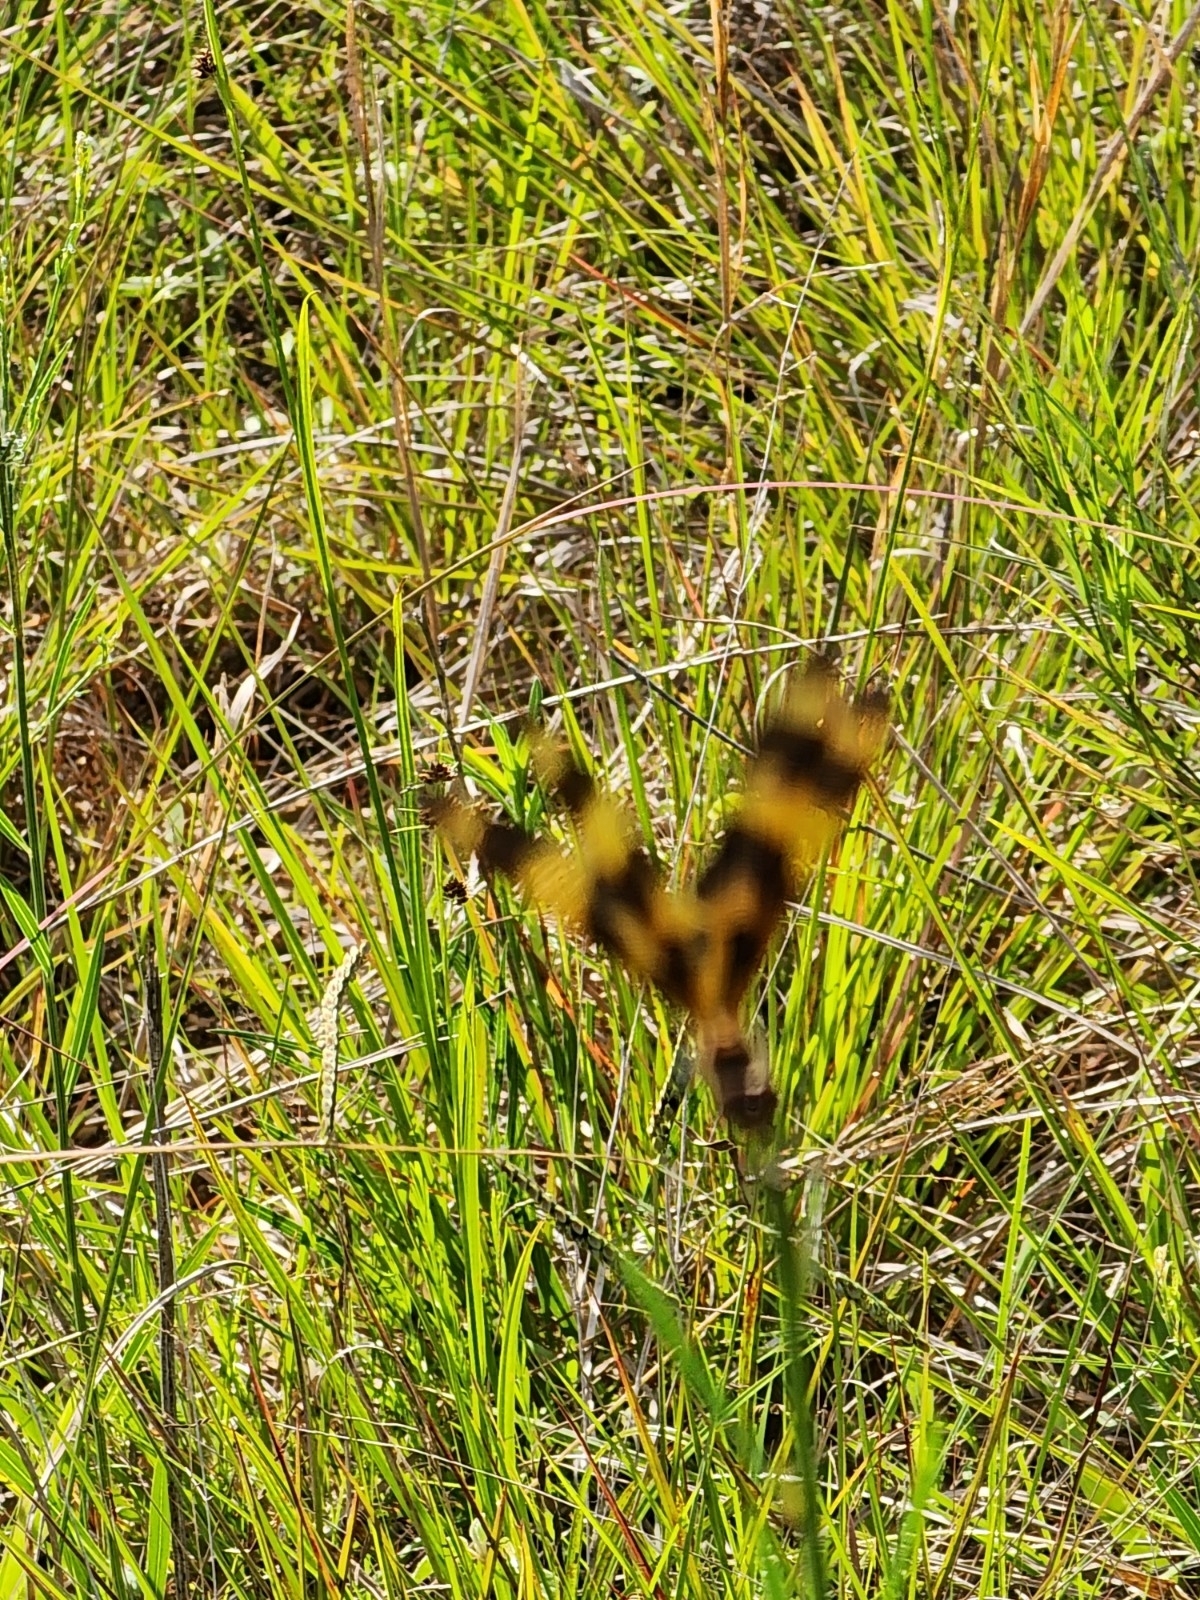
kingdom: Animalia
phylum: Arthropoda
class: Insecta
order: Odonata
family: Libellulidae
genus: Celithemis
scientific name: Celithemis eponina
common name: Halloween pennant
